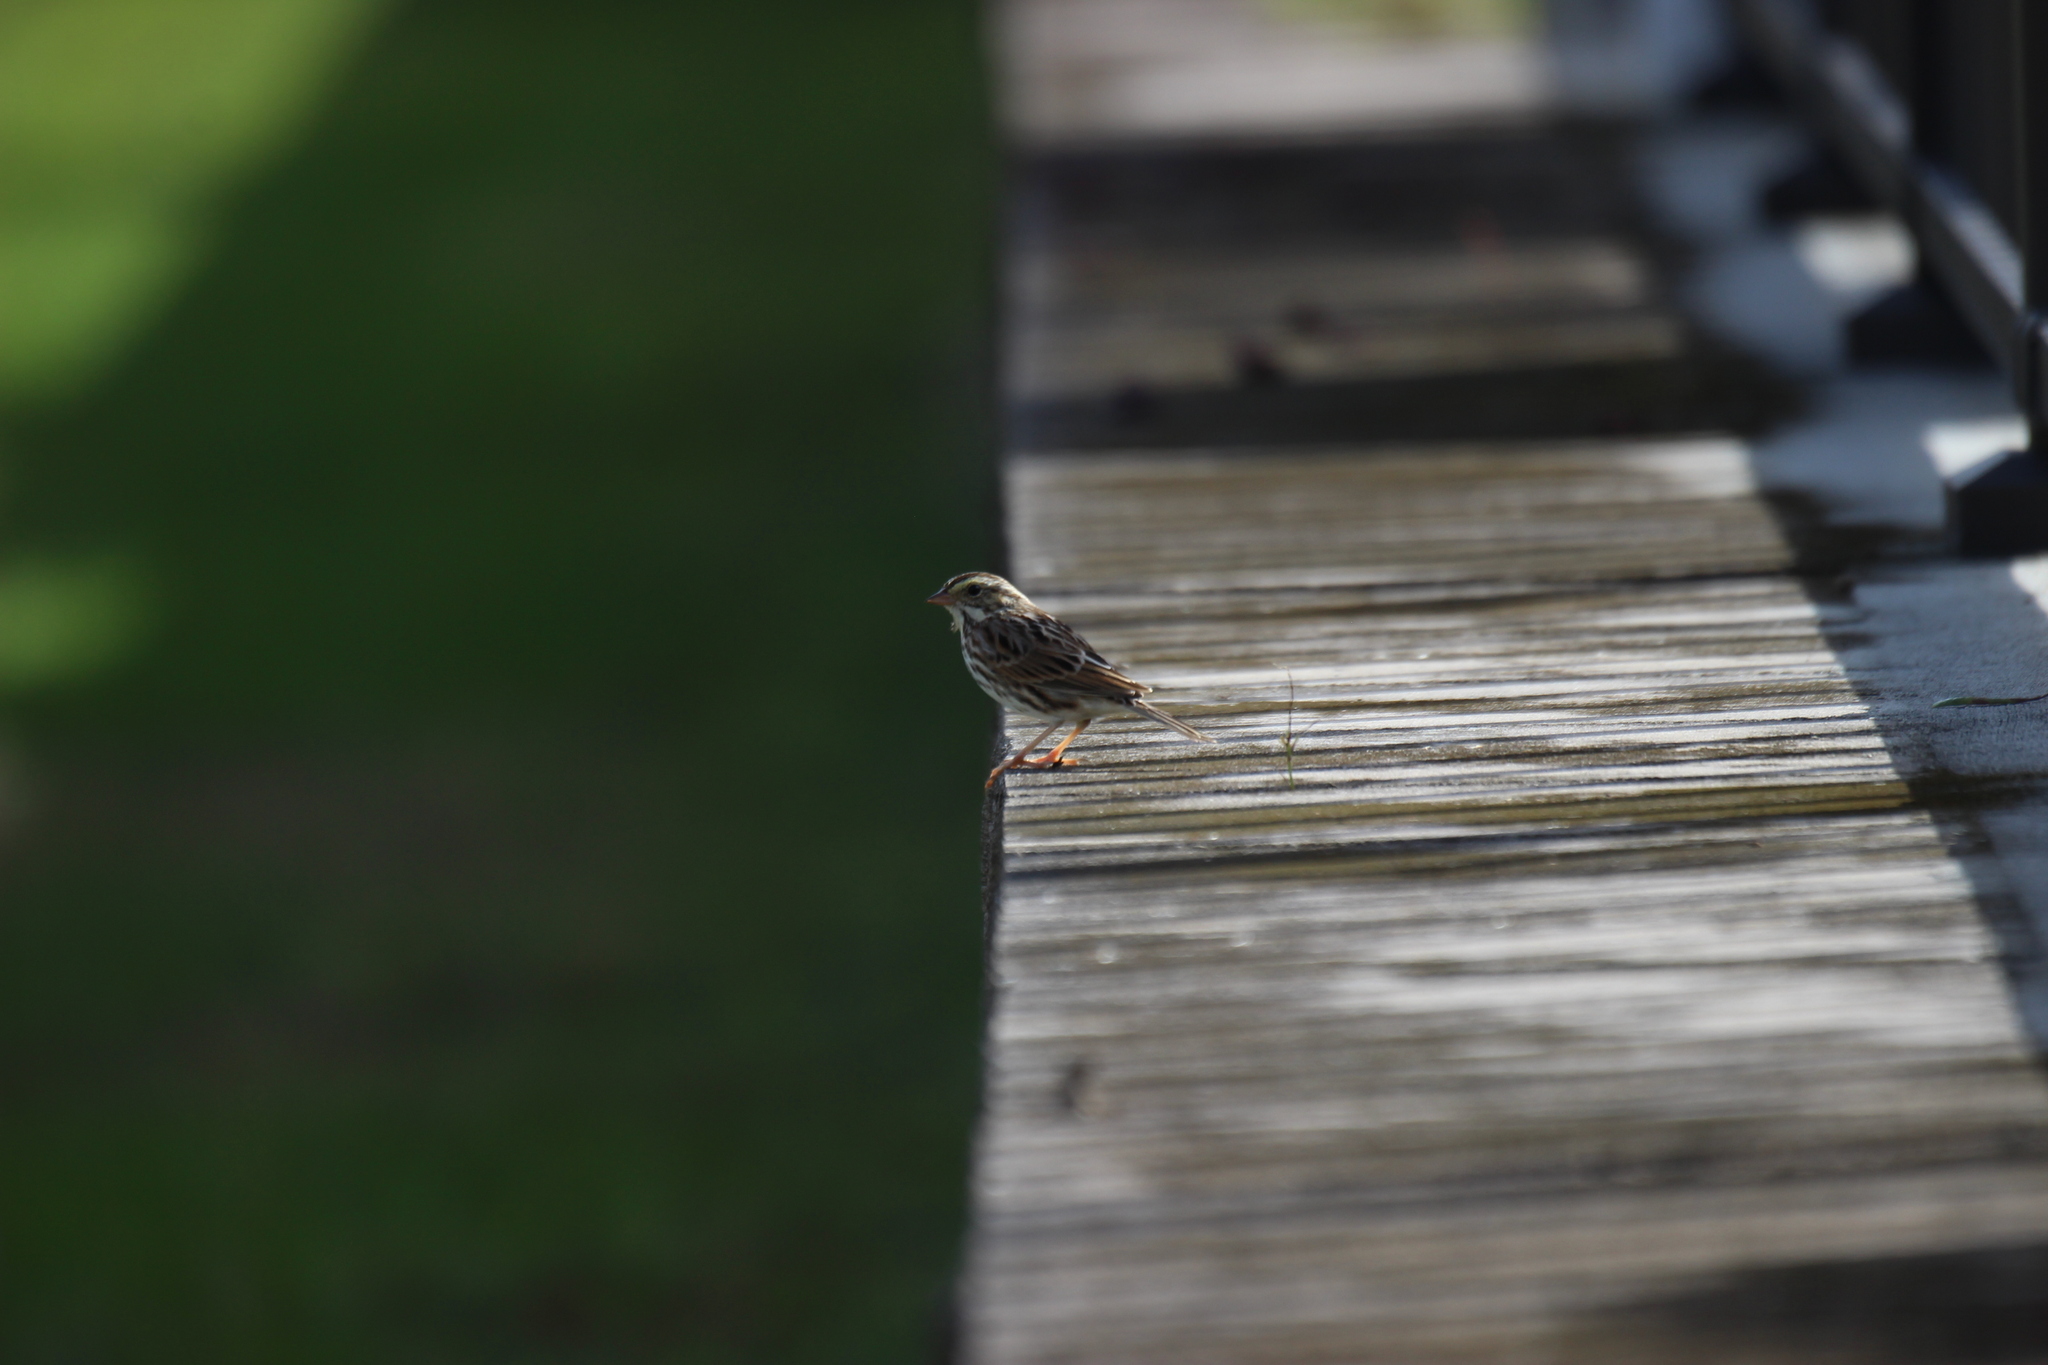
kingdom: Animalia
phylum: Chordata
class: Aves
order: Passeriformes
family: Passerellidae
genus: Passerculus
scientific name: Passerculus sandwichensis
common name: Savannah sparrow
